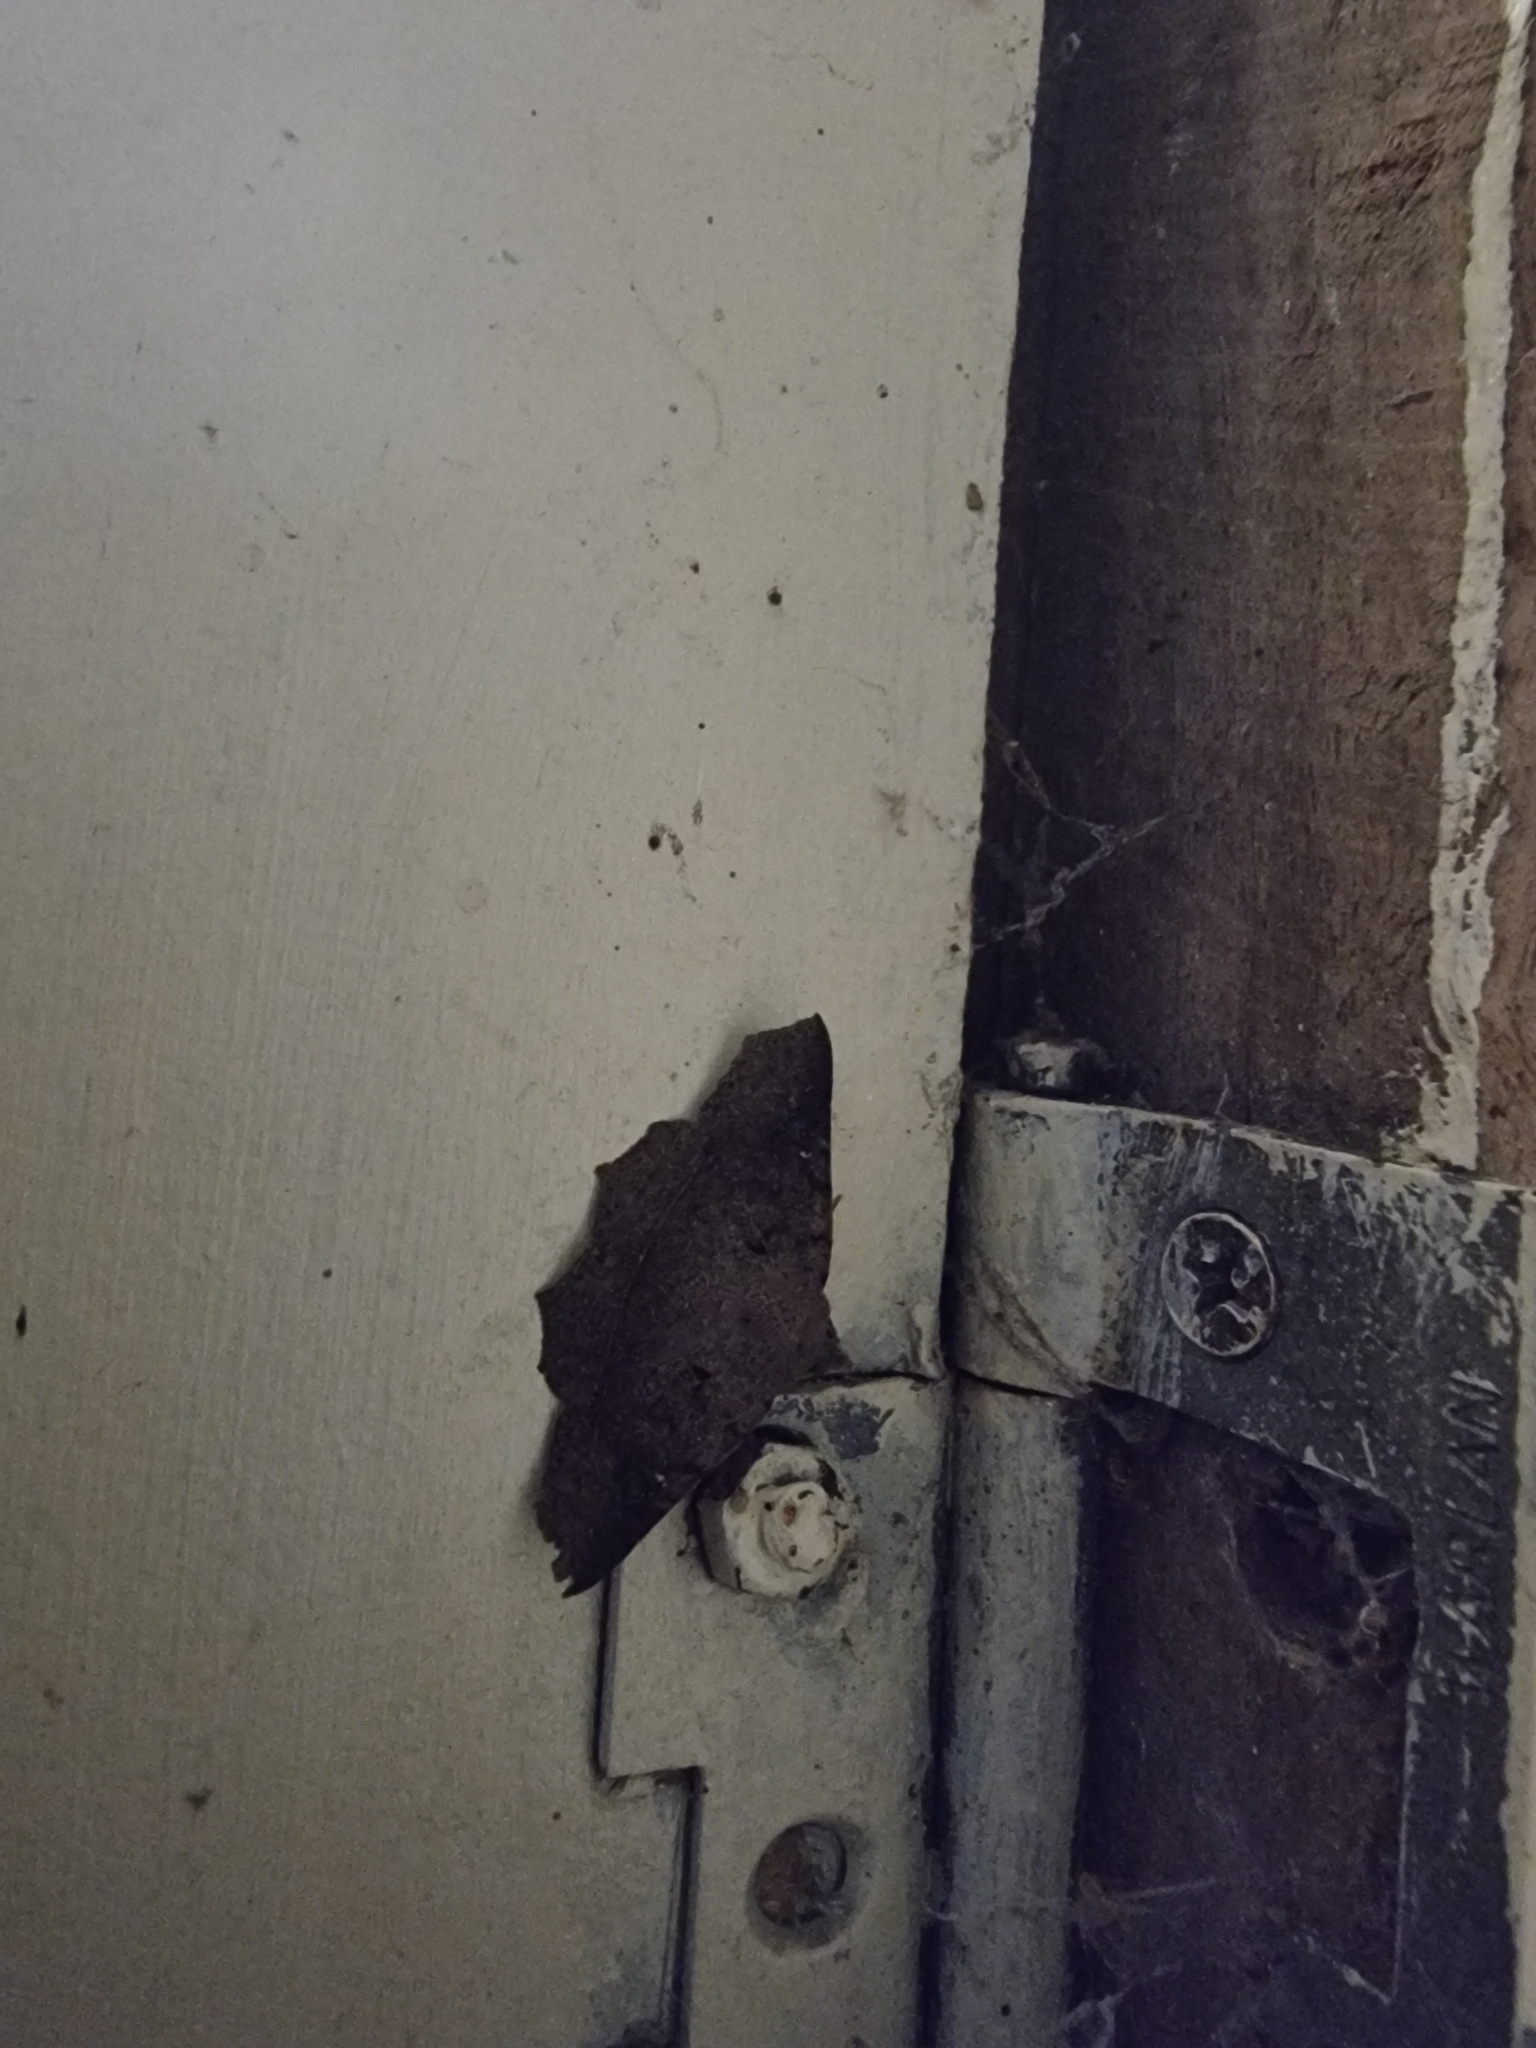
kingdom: Animalia
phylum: Arthropoda
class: Insecta
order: Lepidoptera
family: Erebidae
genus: Amphiongia
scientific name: Amphiongia chordophoides
